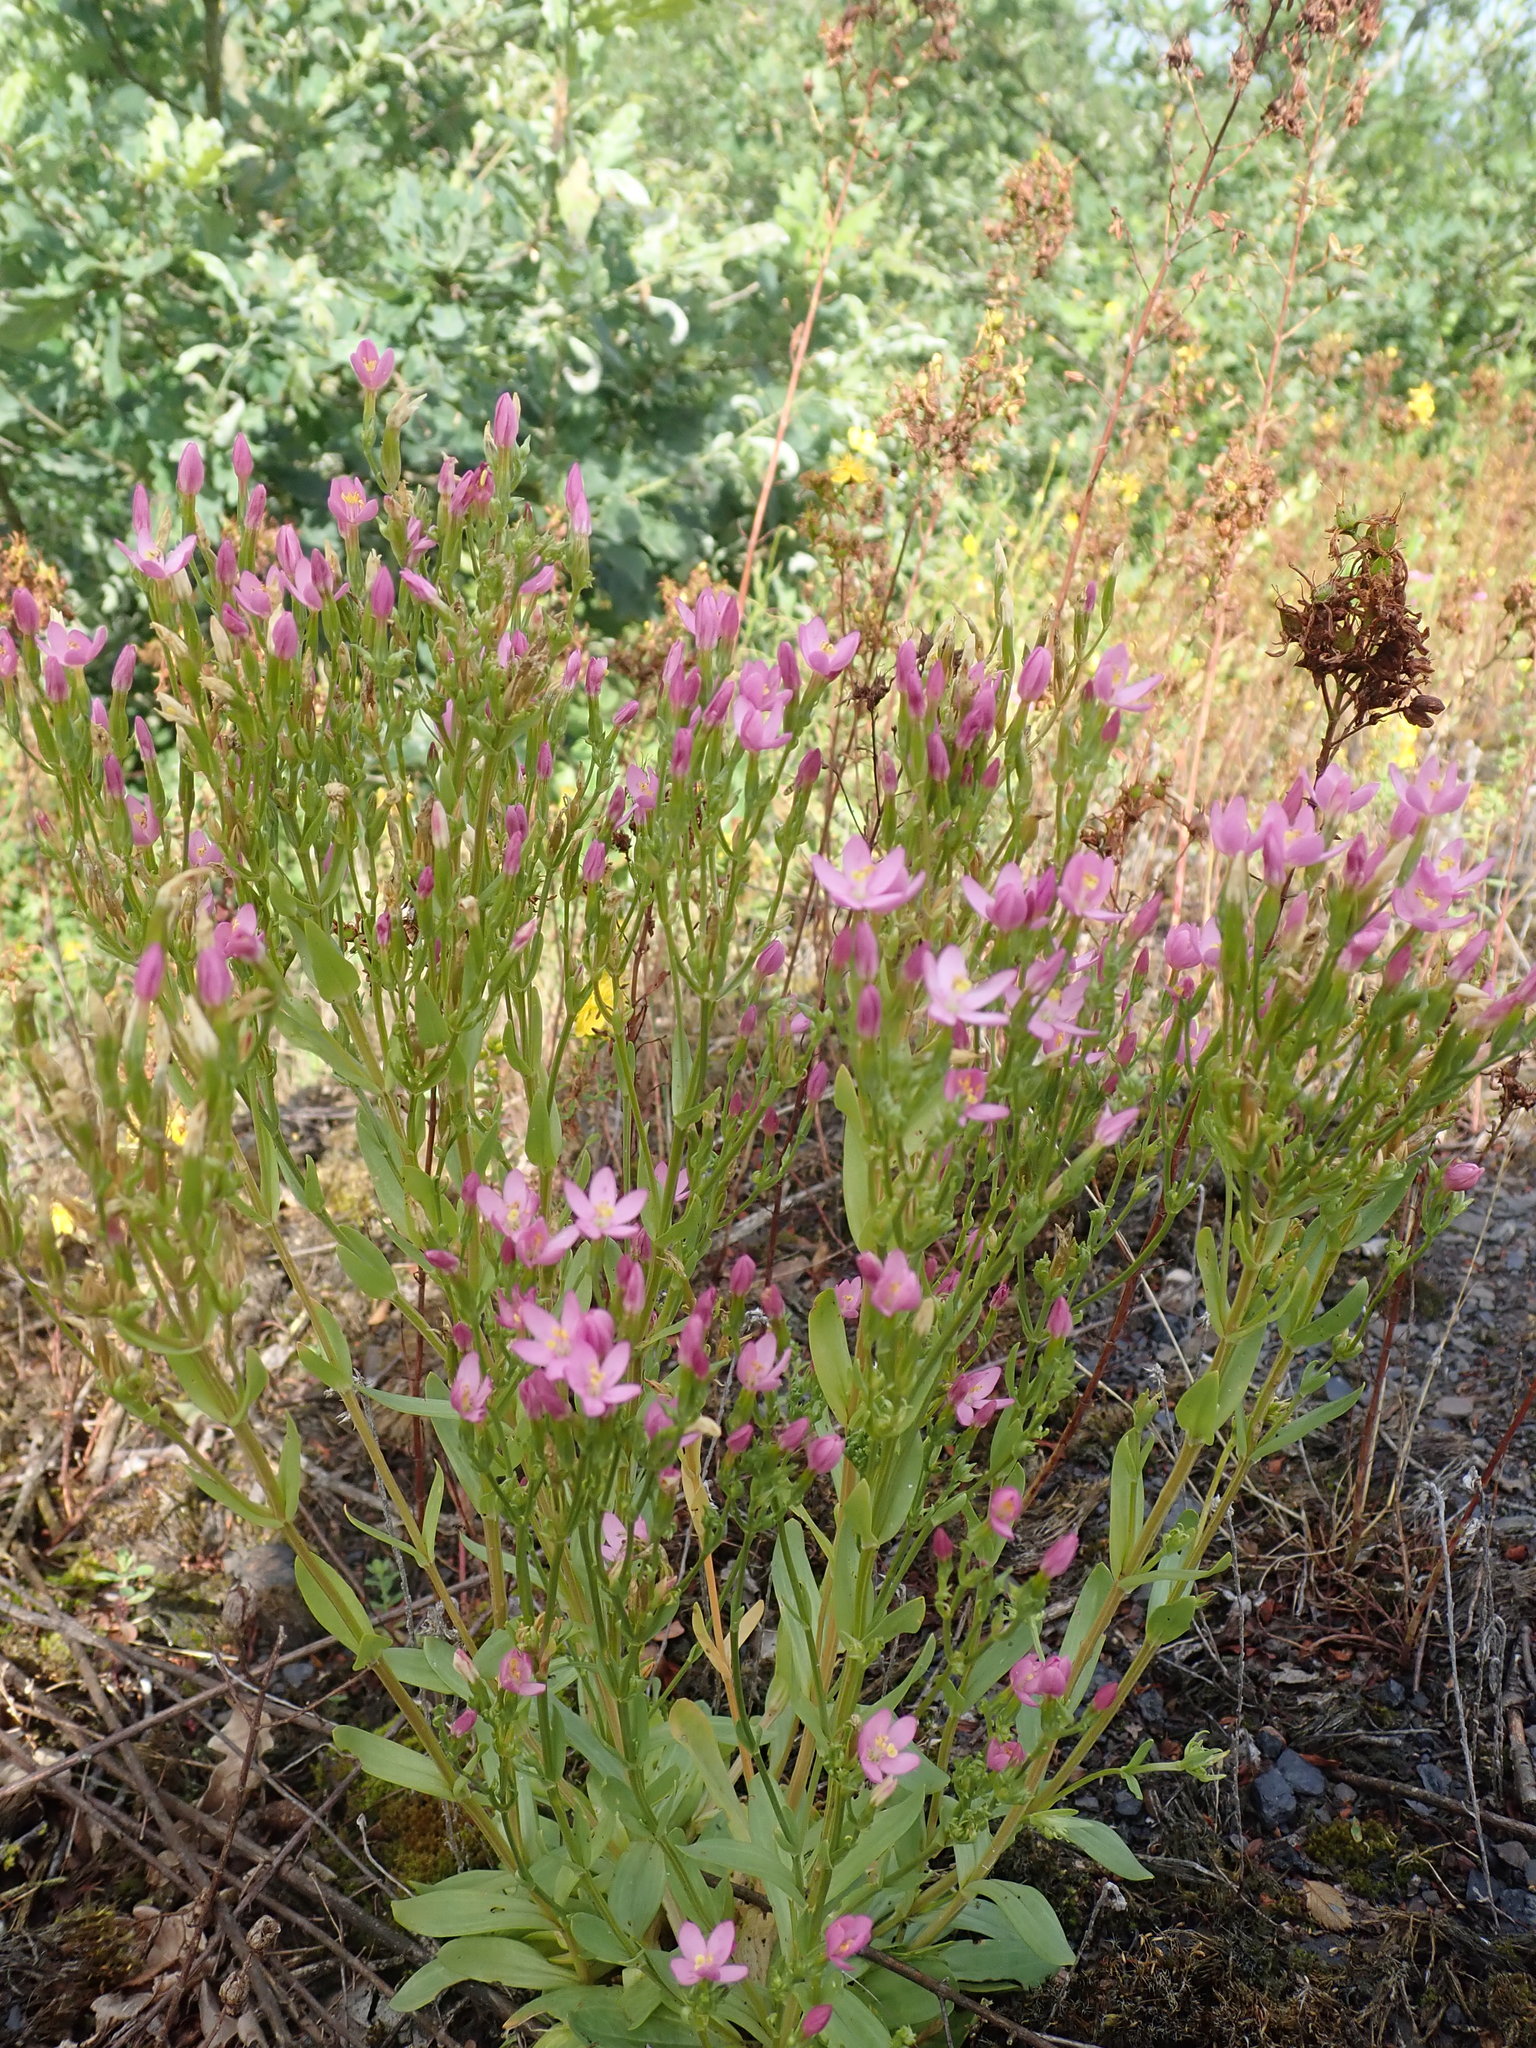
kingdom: Plantae
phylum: Tracheophyta
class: Magnoliopsida
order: Gentianales
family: Gentianaceae
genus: Centaurium
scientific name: Centaurium erythraea
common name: Common centaury
